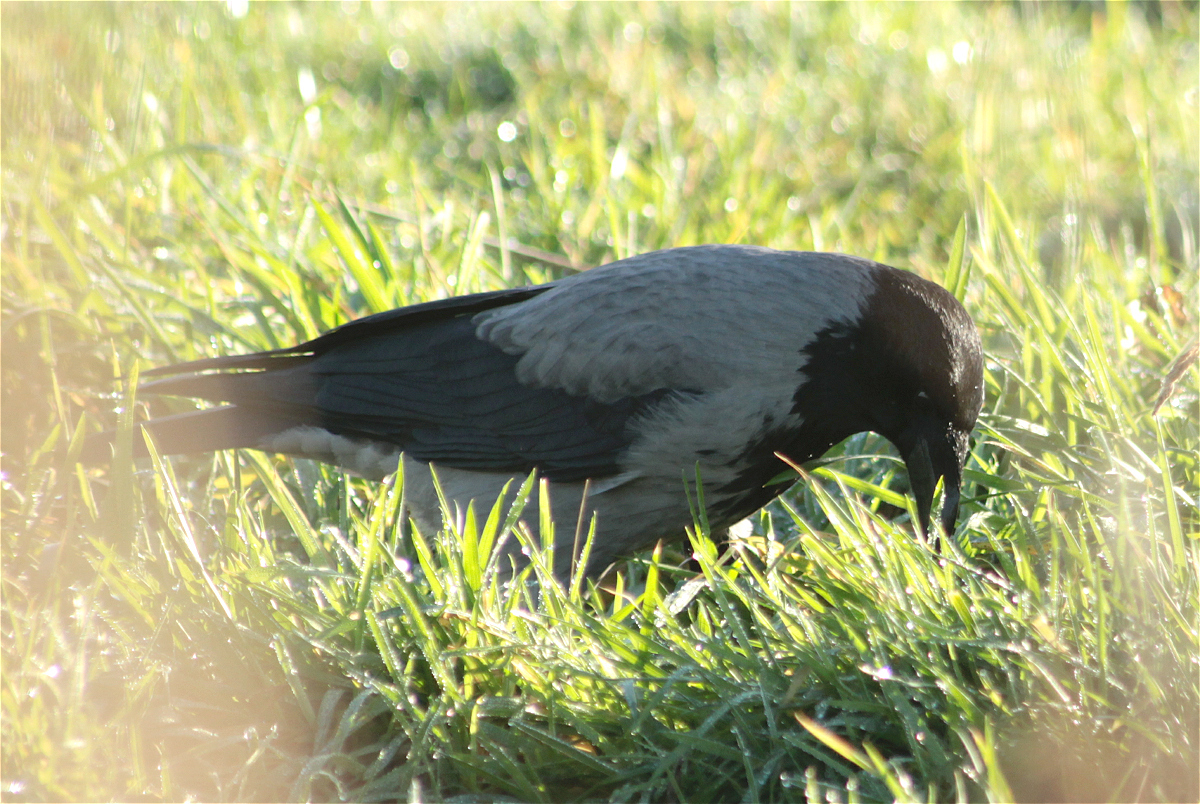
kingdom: Animalia
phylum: Chordata
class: Aves
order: Passeriformes
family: Corvidae
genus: Corvus
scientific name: Corvus cornix
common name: Hooded crow
